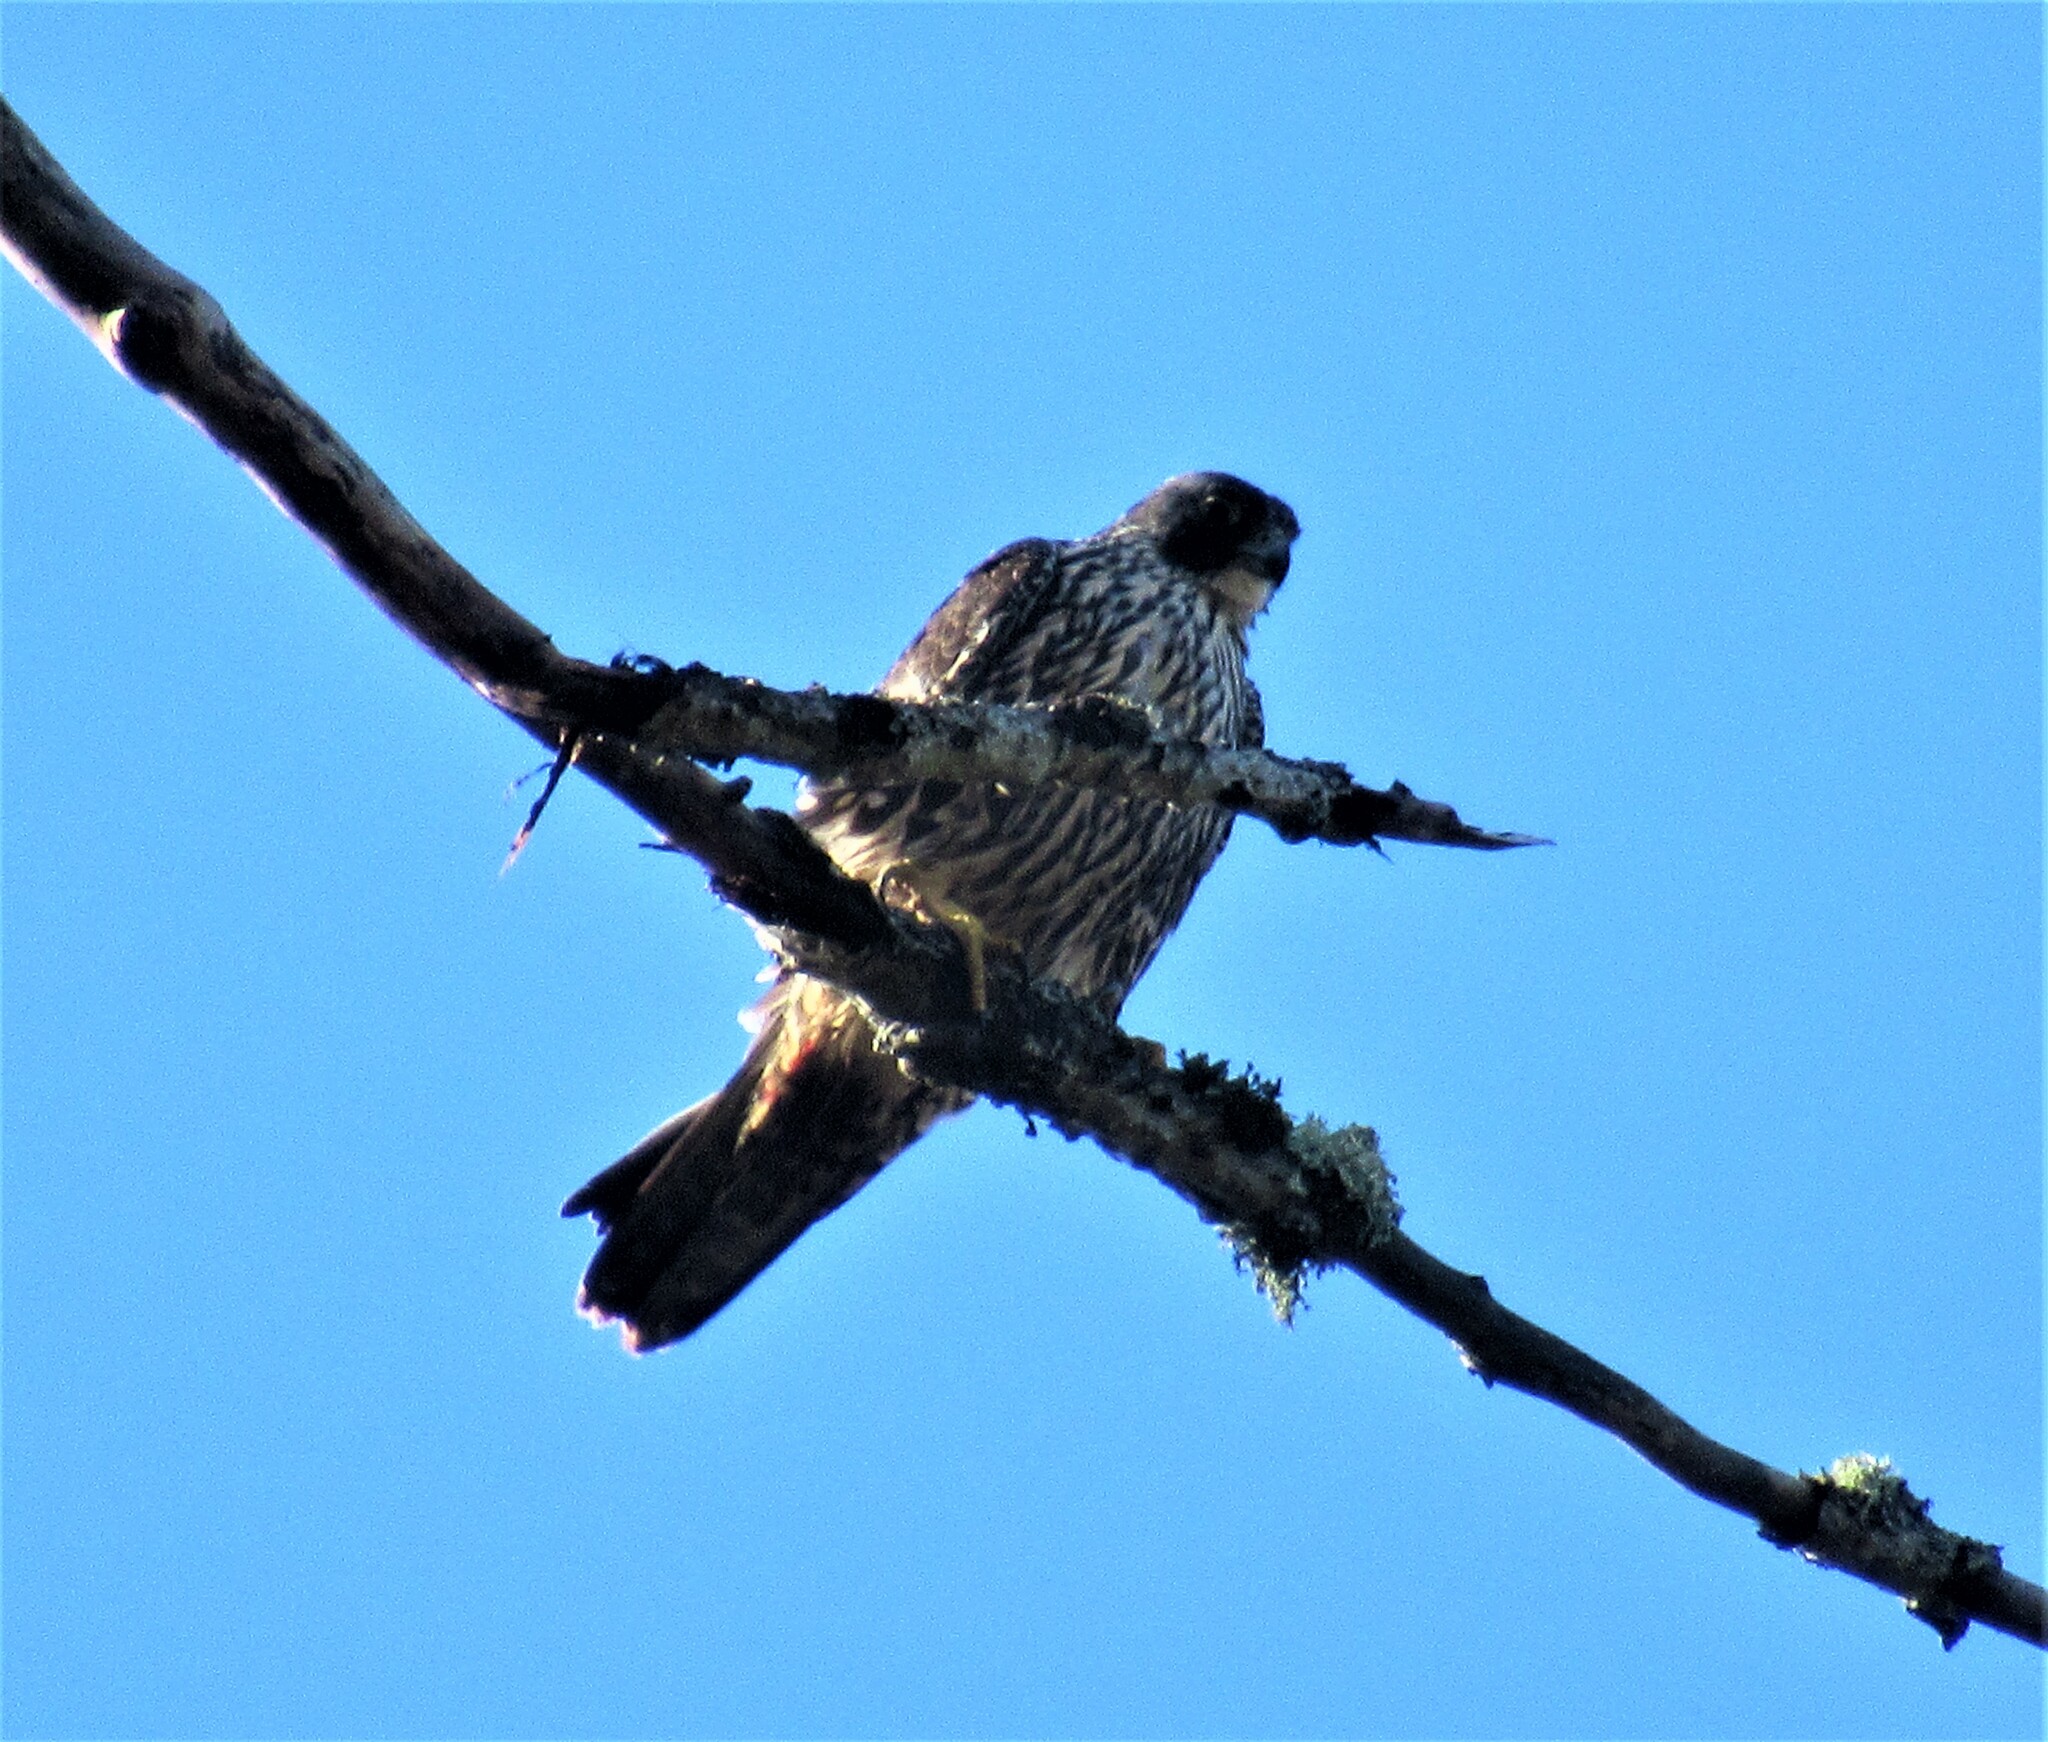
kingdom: Animalia
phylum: Chordata
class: Aves
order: Falconiformes
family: Falconidae
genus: Falco
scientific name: Falco peregrinus
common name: Peregrine falcon
